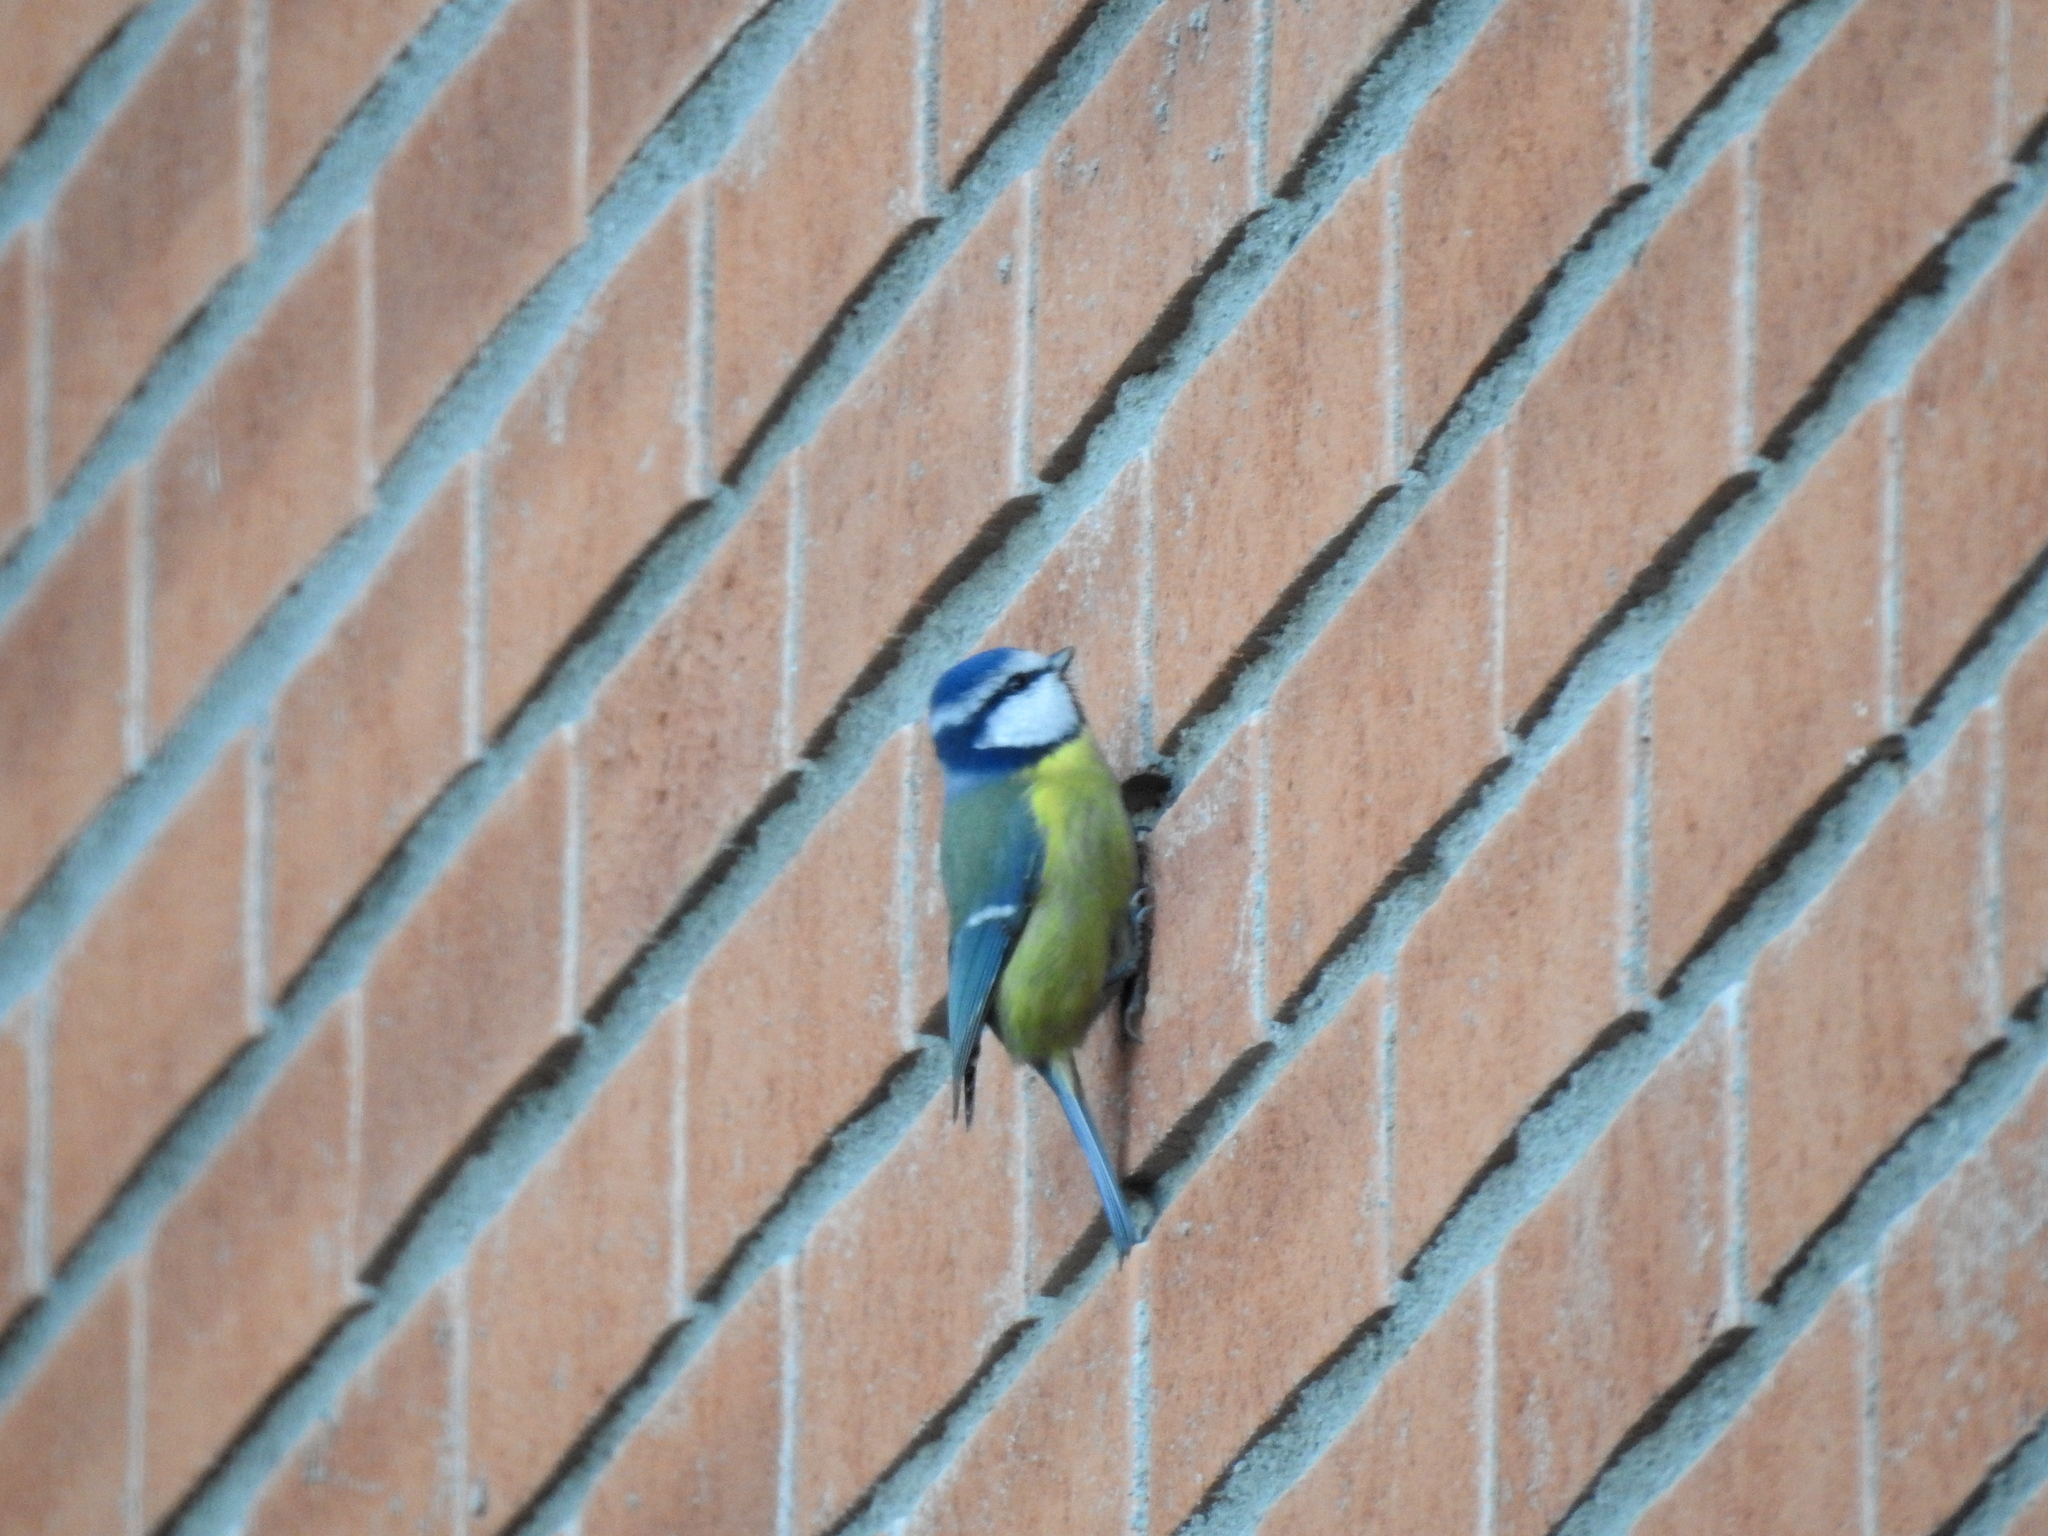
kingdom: Animalia
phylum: Chordata
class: Aves
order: Passeriformes
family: Paridae
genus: Cyanistes
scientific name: Cyanistes caeruleus
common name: Eurasian blue tit
